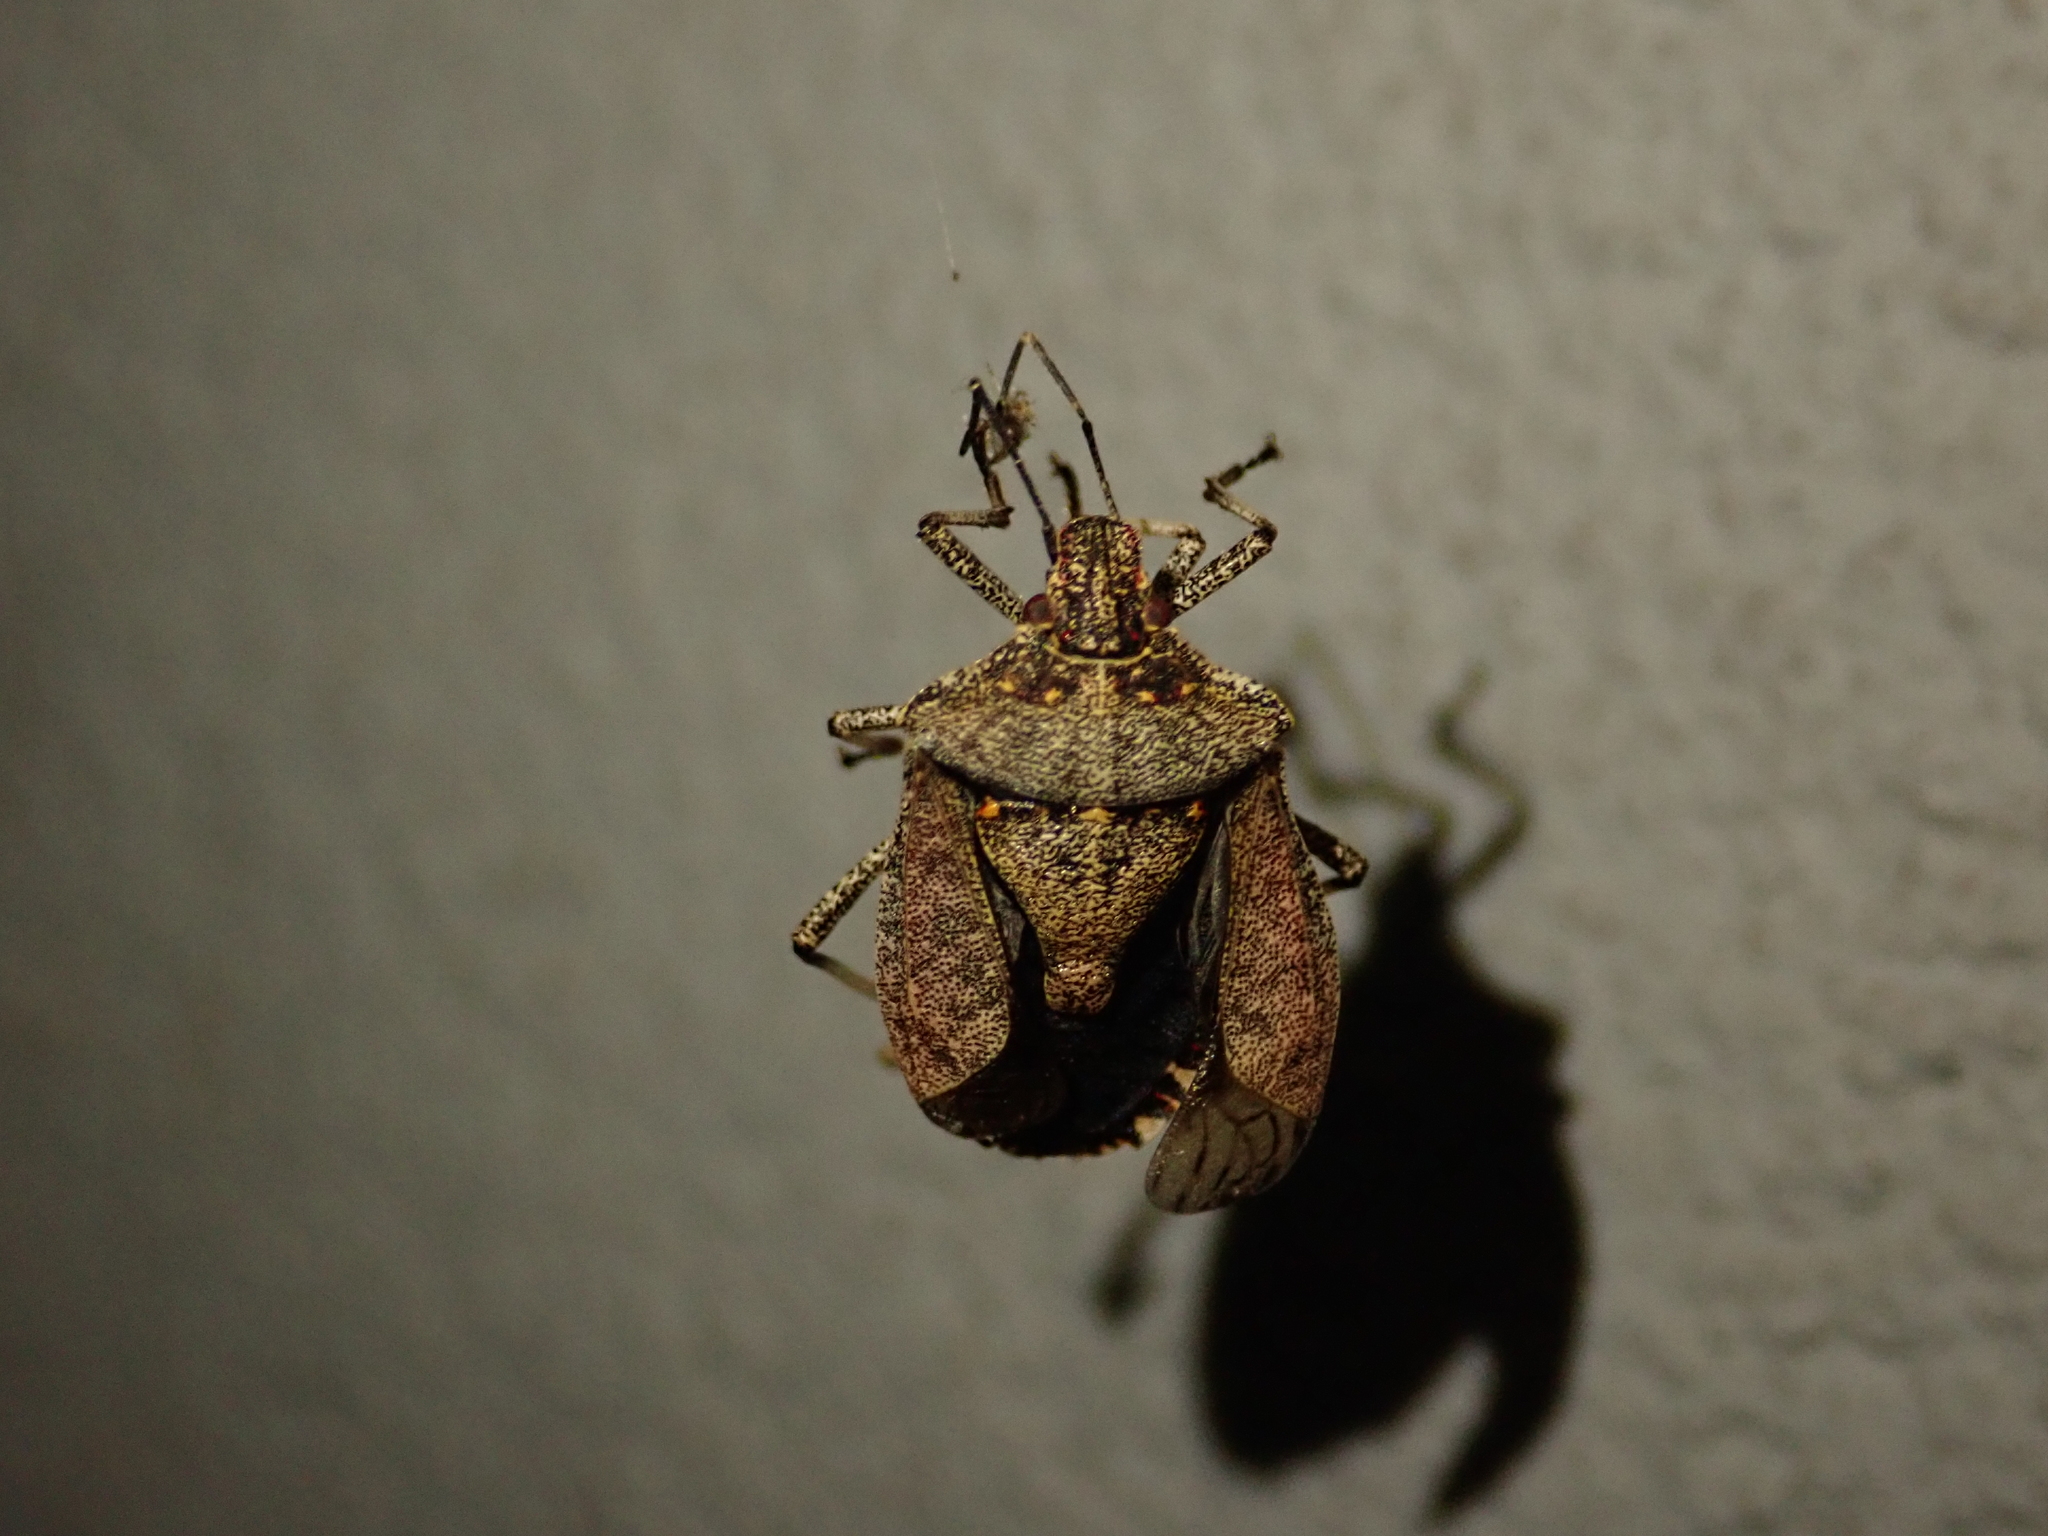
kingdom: Animalia
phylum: Arthropoda
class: Insecta
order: Hemiptera
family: Pentatomidae
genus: Halyomorpha
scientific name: Halyomorpha halys
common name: Brown marmorated stink bug
